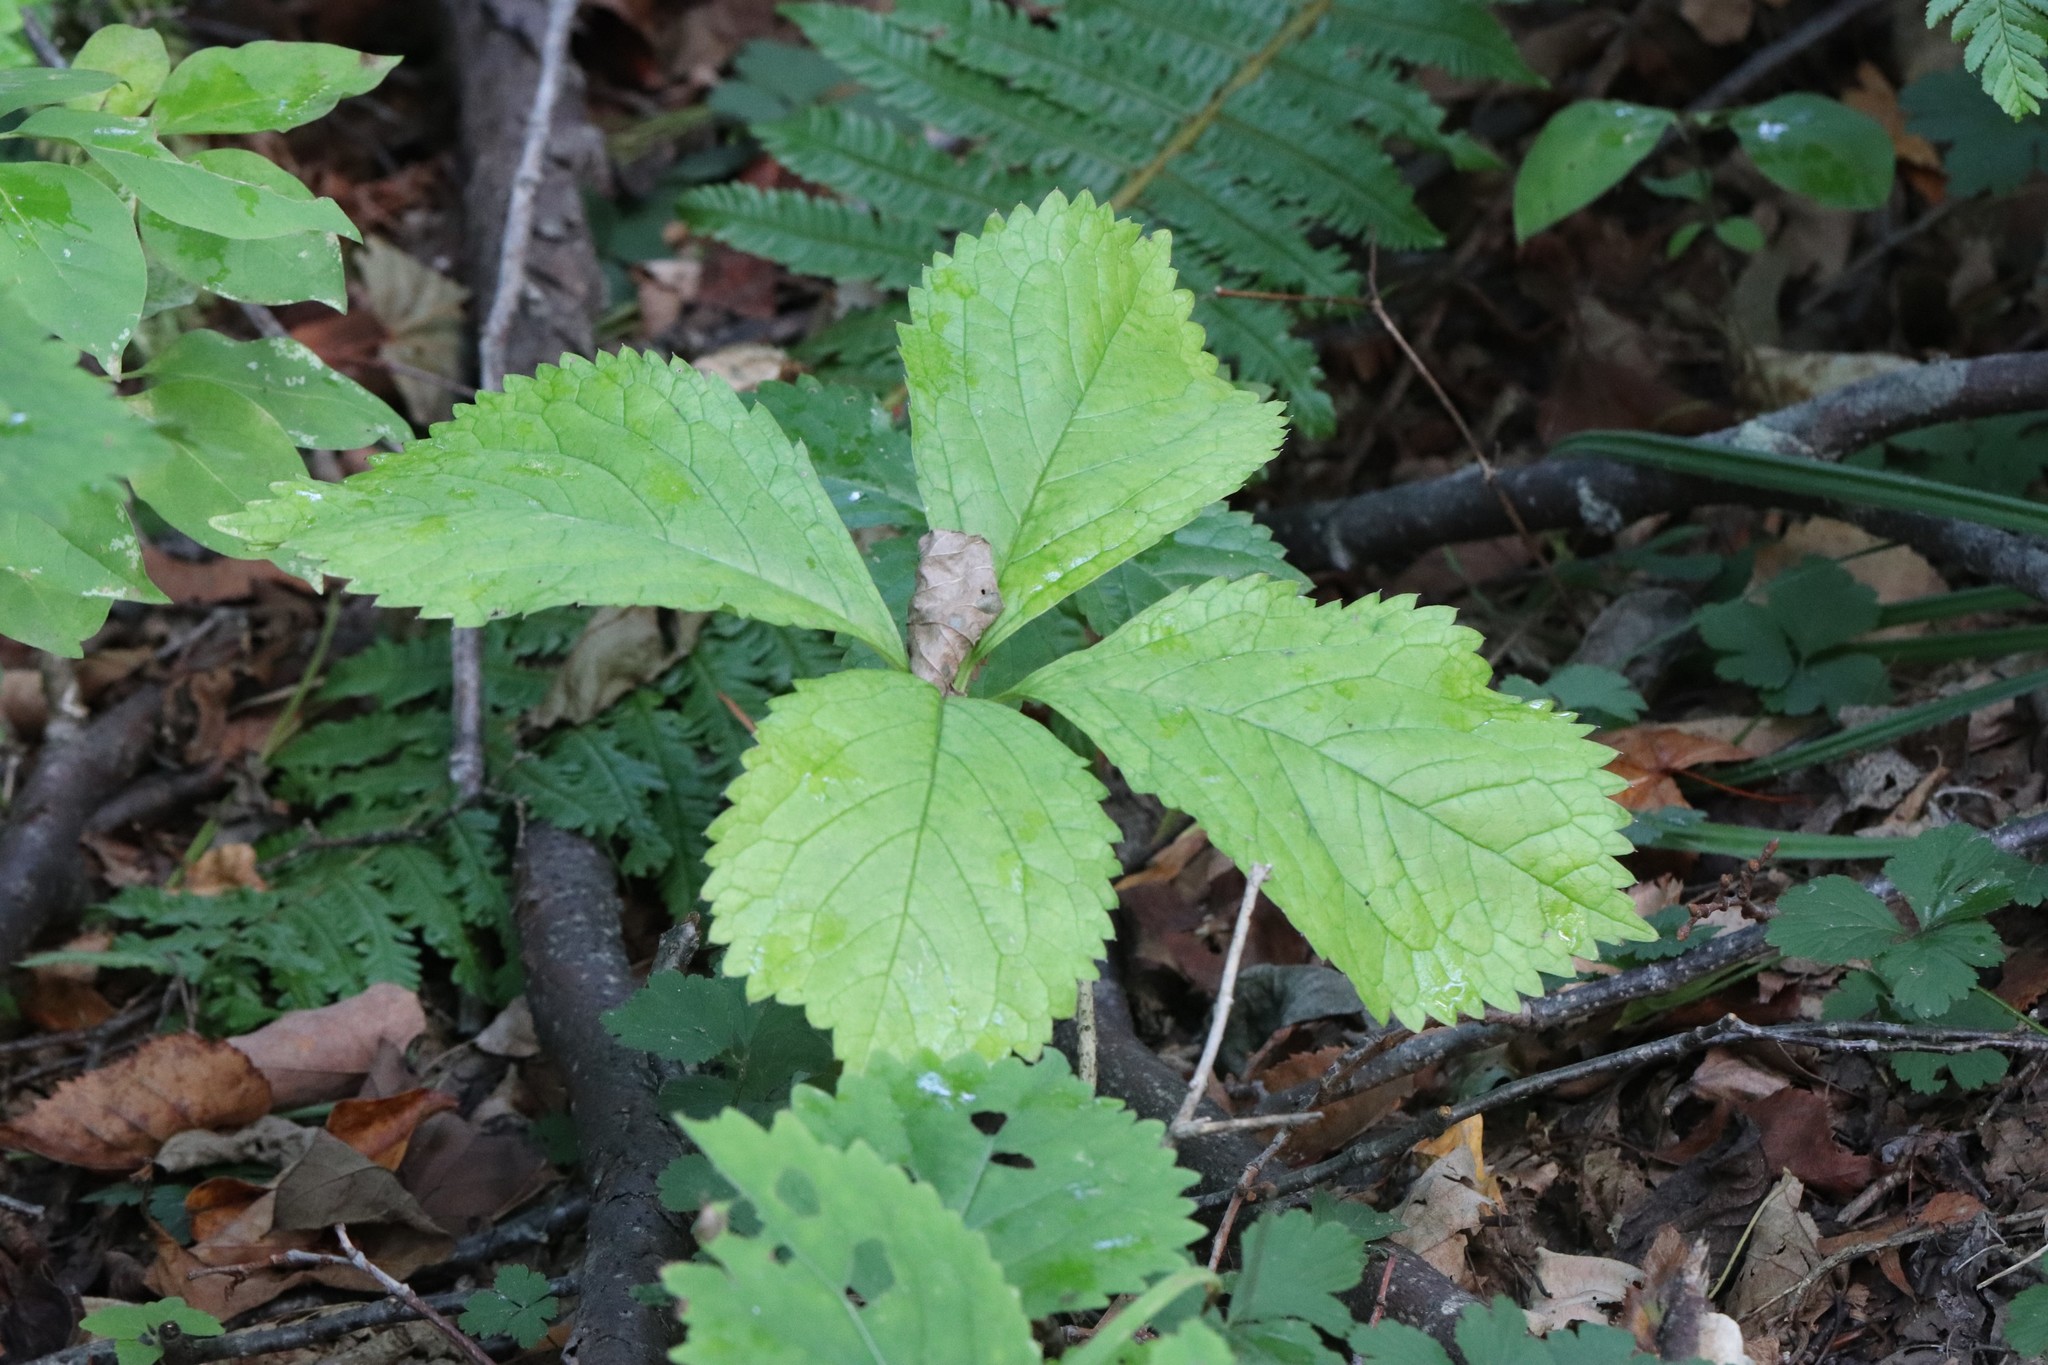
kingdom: Plantae
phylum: Tracheophyta
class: Magnoliopsida
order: Chloranthales
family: Chloranthaceae
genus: Chloranthus
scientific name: Chloranthus quadrifolius
